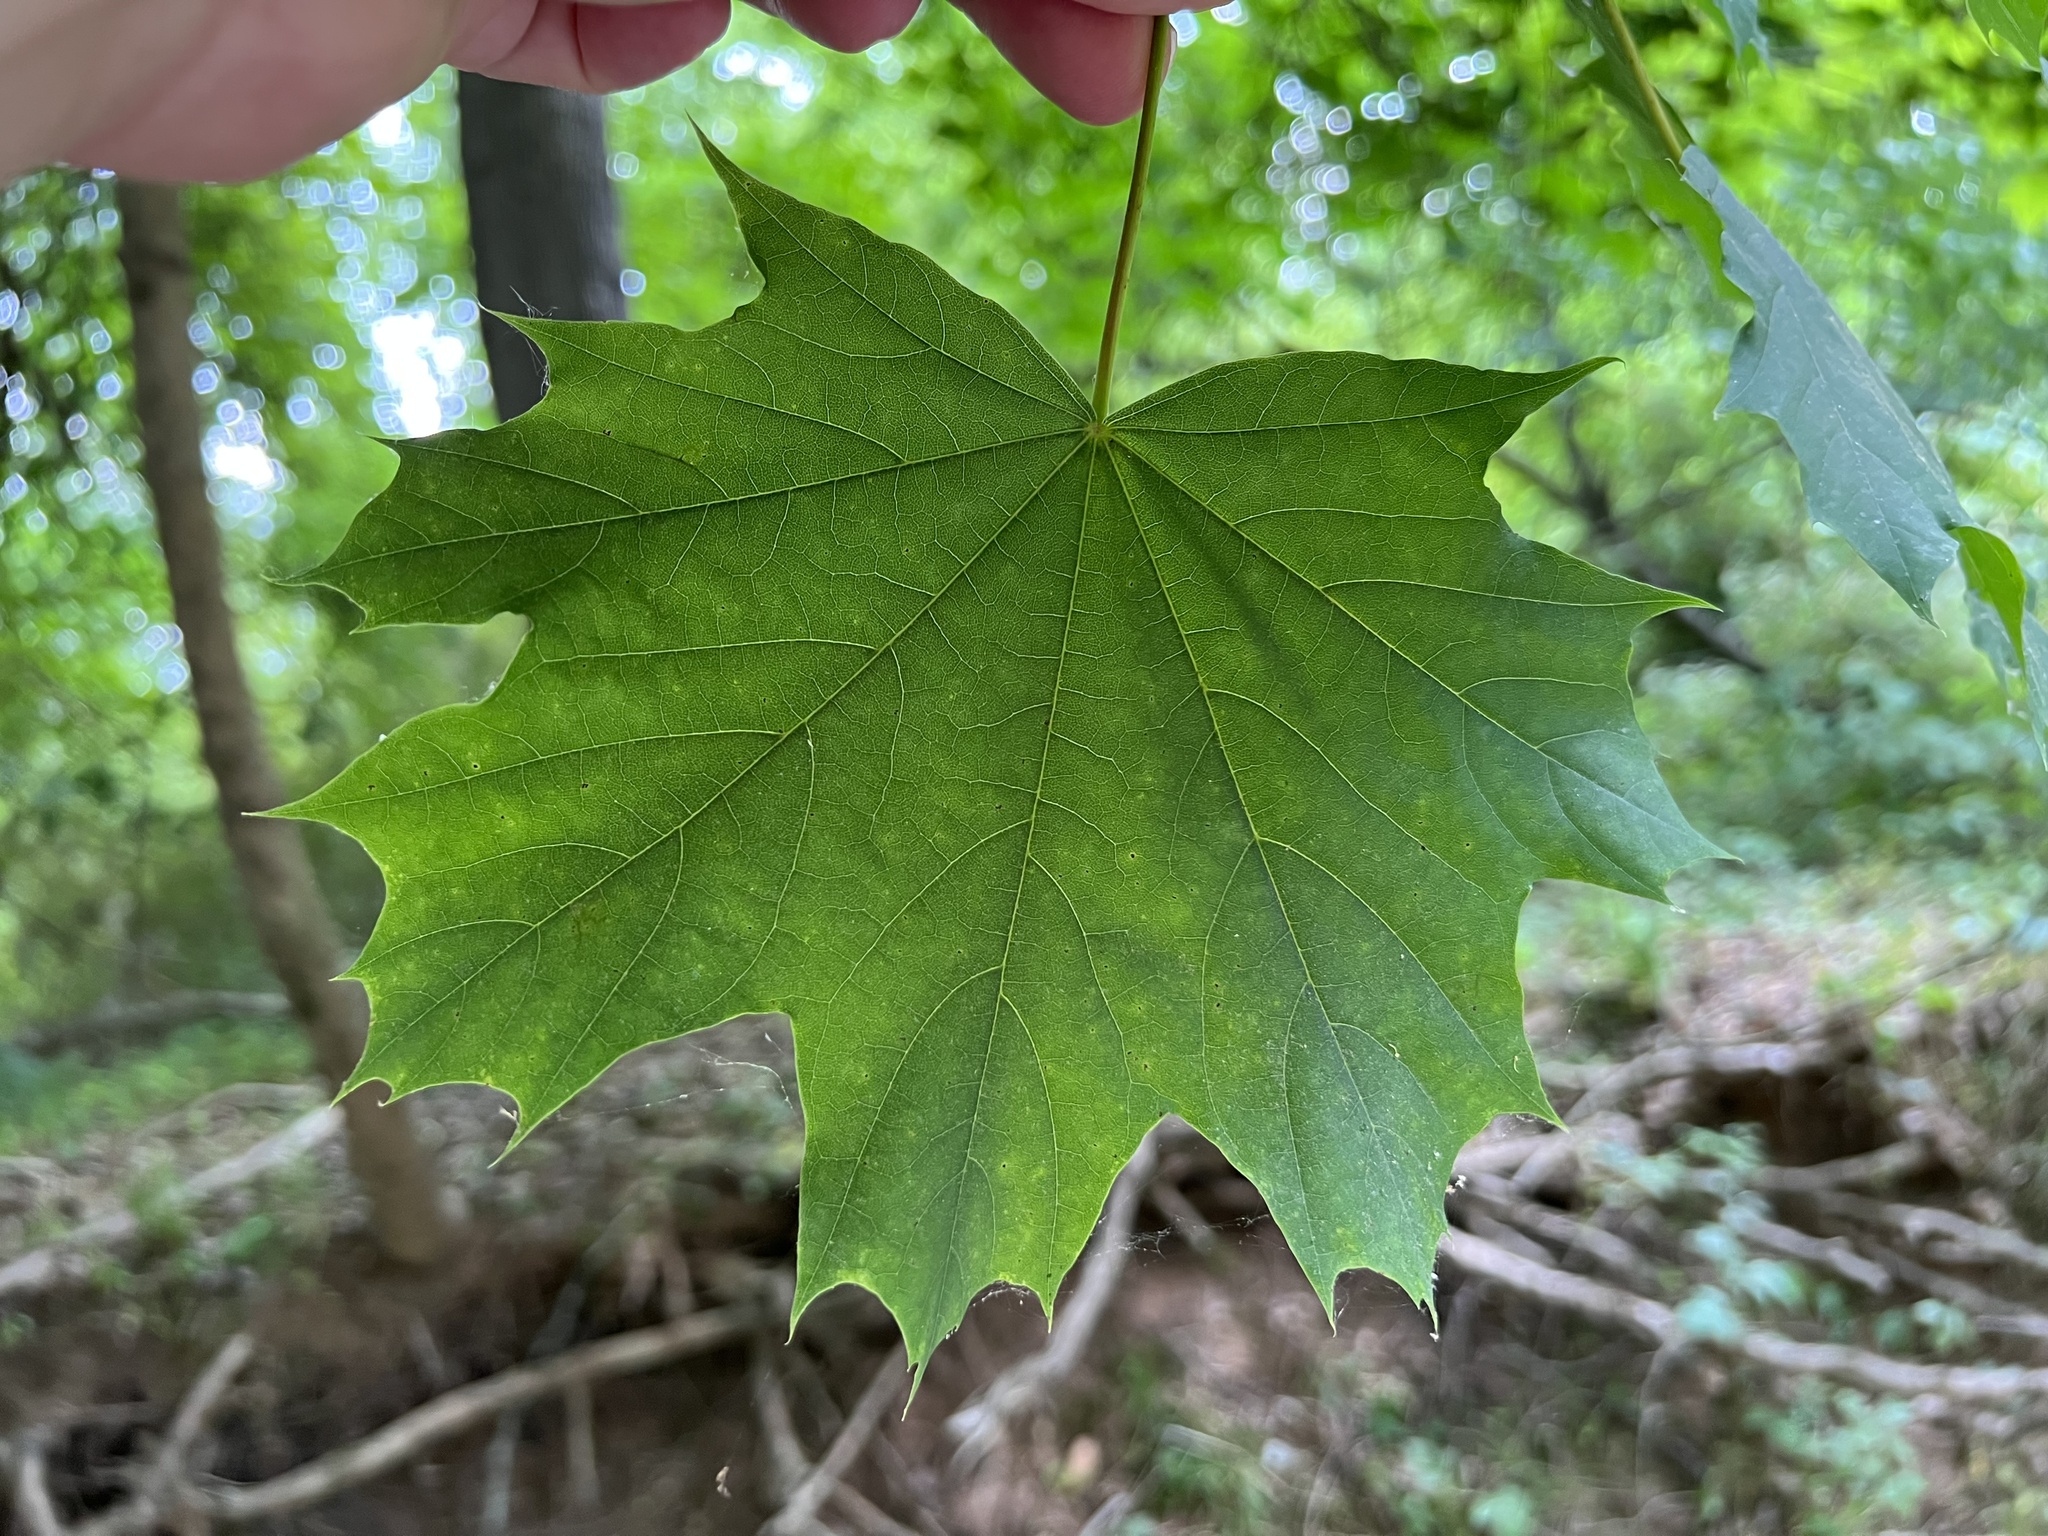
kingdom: Plantae
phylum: Tracheophyta
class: Magnoliopsida
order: Sapindales
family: Sapindaceae
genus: Acer
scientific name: Acer platanoides
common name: Norway maple
